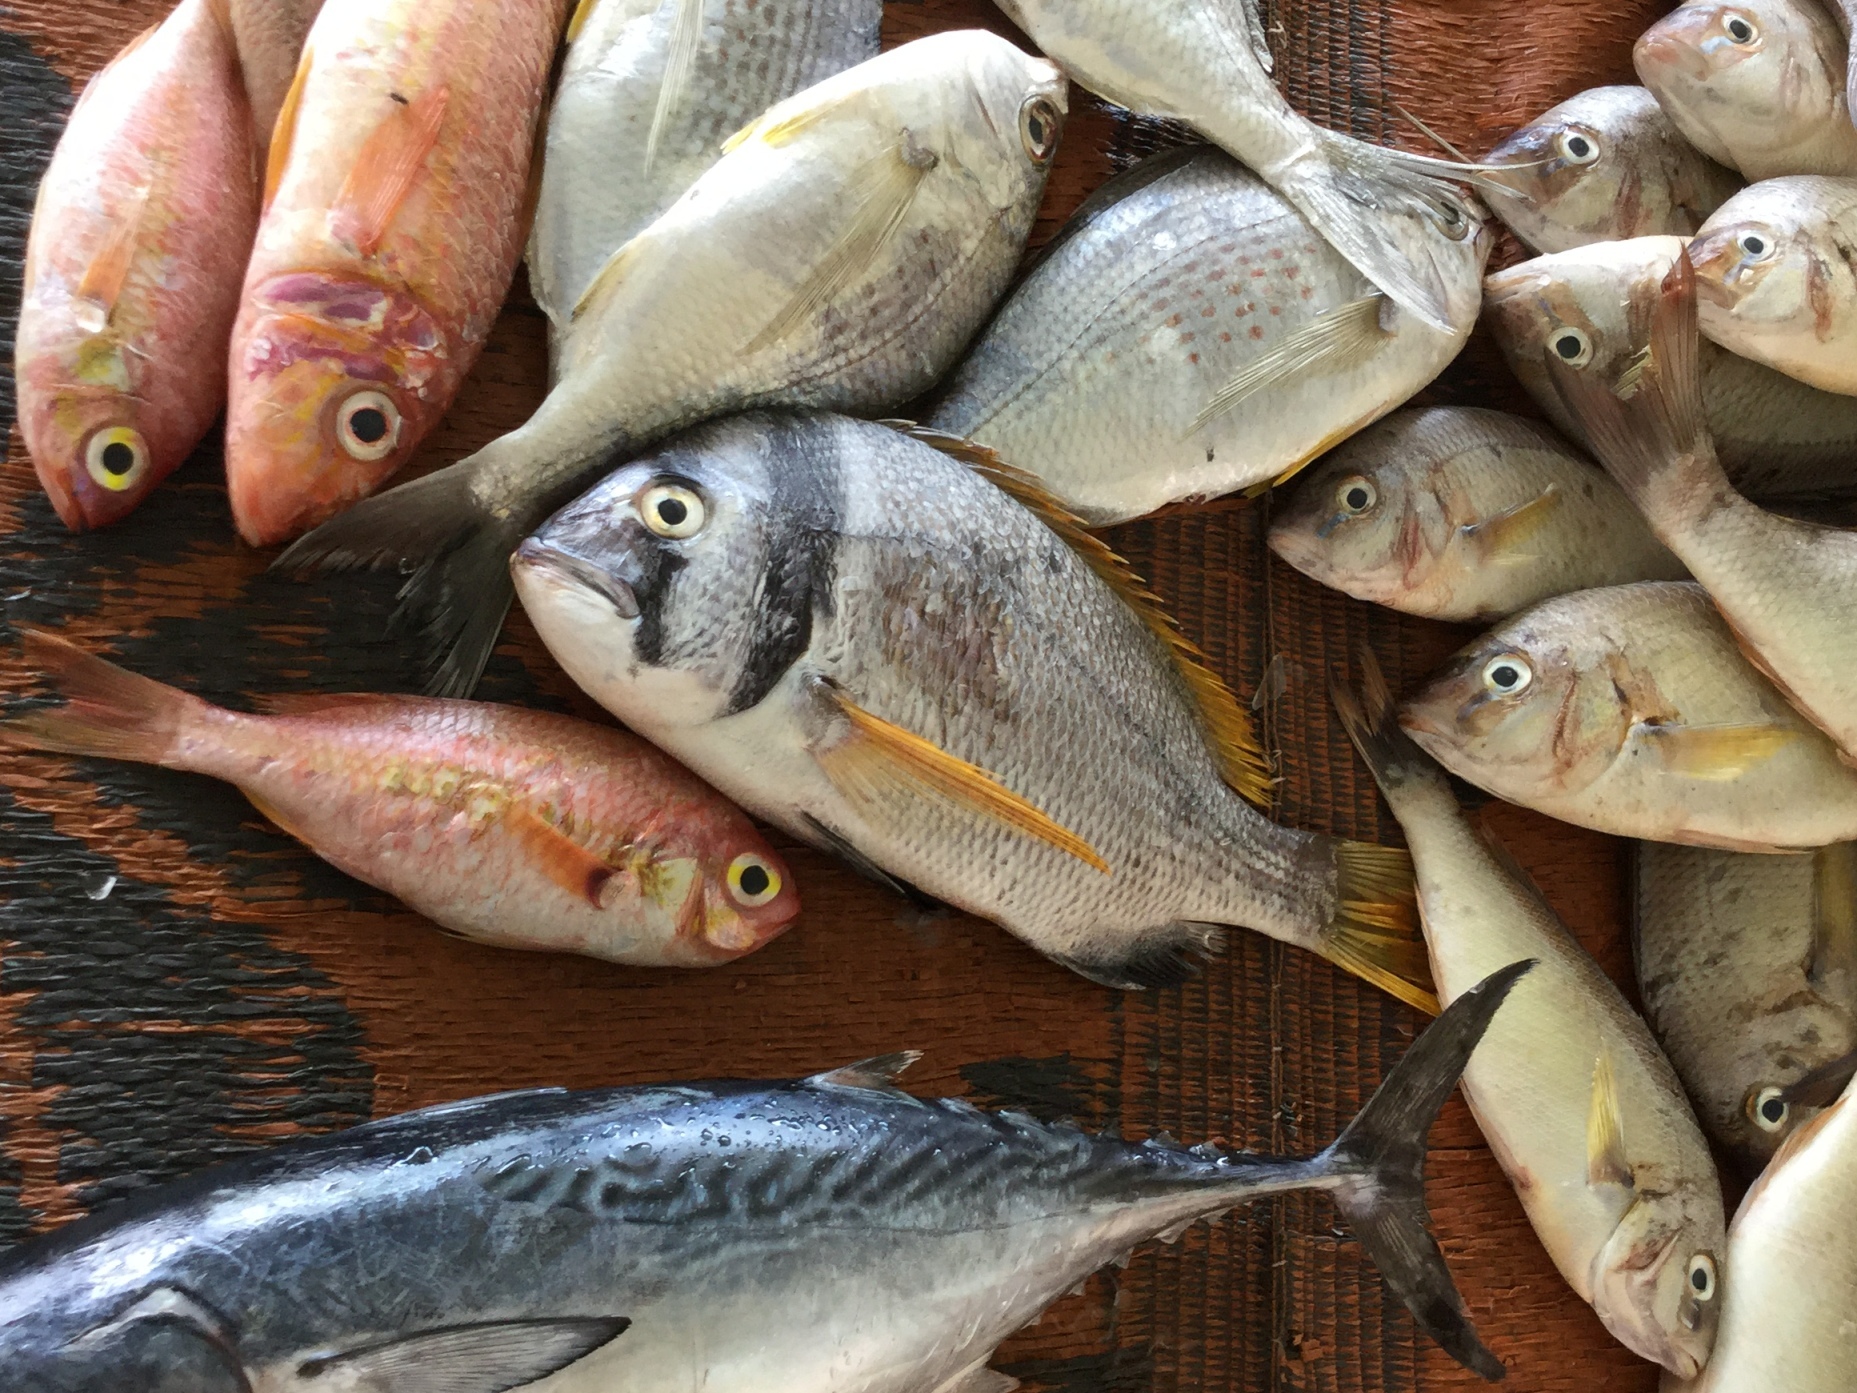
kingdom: Animalia
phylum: Chordata
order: Perciformes
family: Sparidae
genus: Acanthopagrus
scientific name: Acanthopagrus bifasciatus
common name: Twobar seabream
